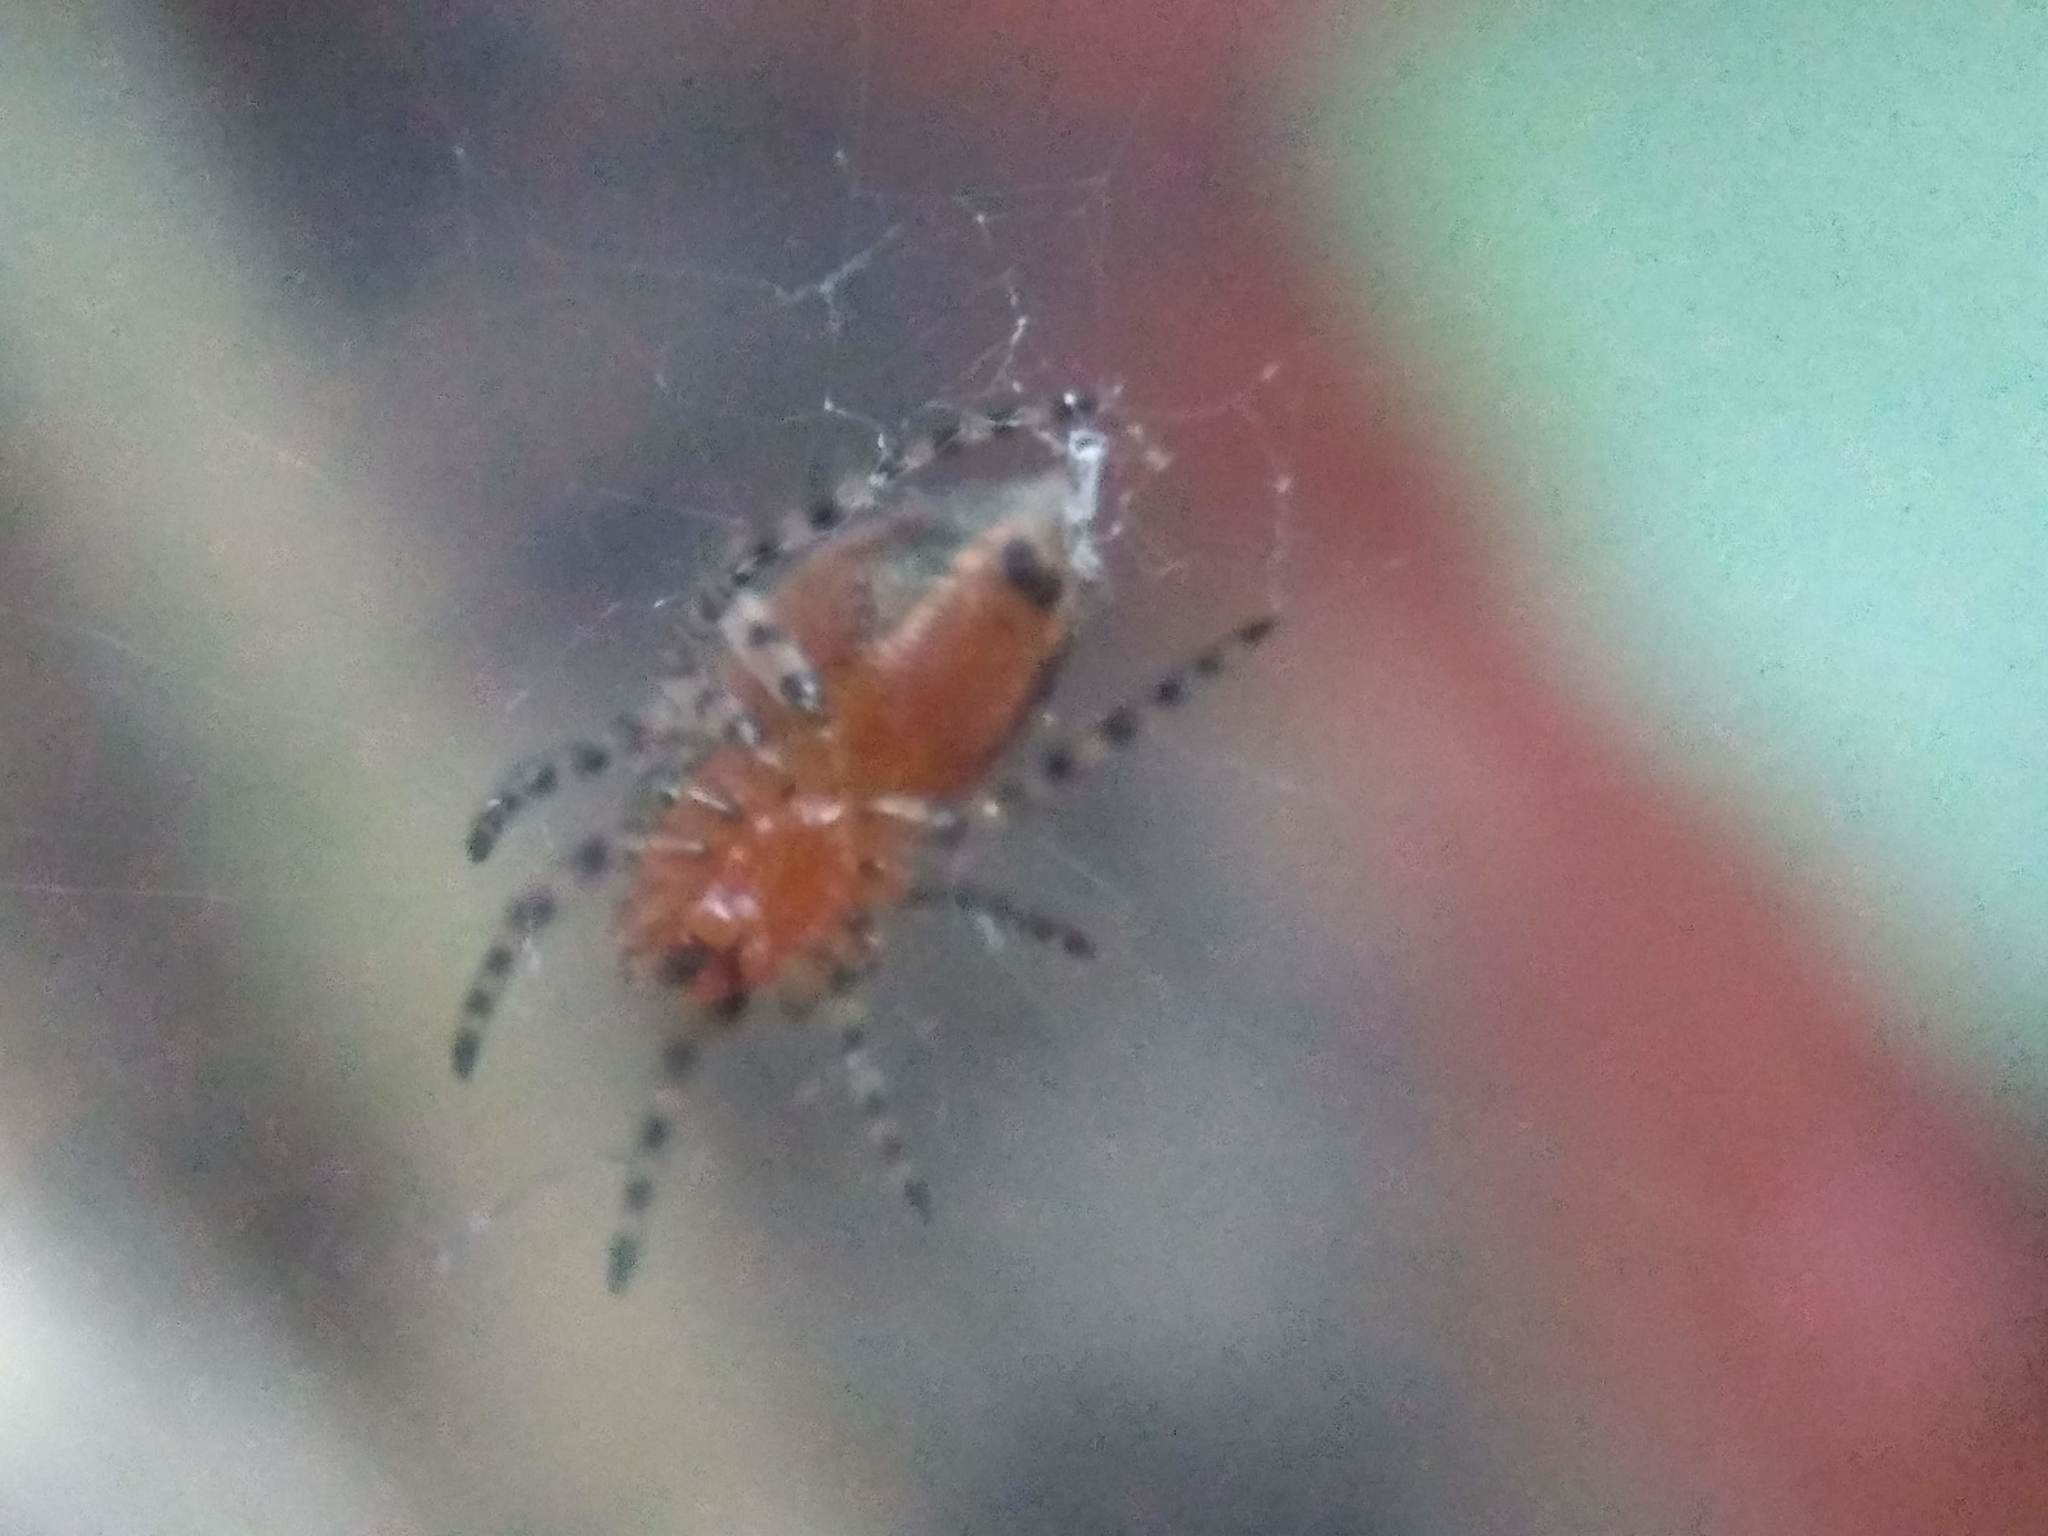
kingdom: Animalia
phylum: Arthropoda
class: Arachnida
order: Araneae
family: Araneidae
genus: Alpaida
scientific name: Alpaida gallardoi
